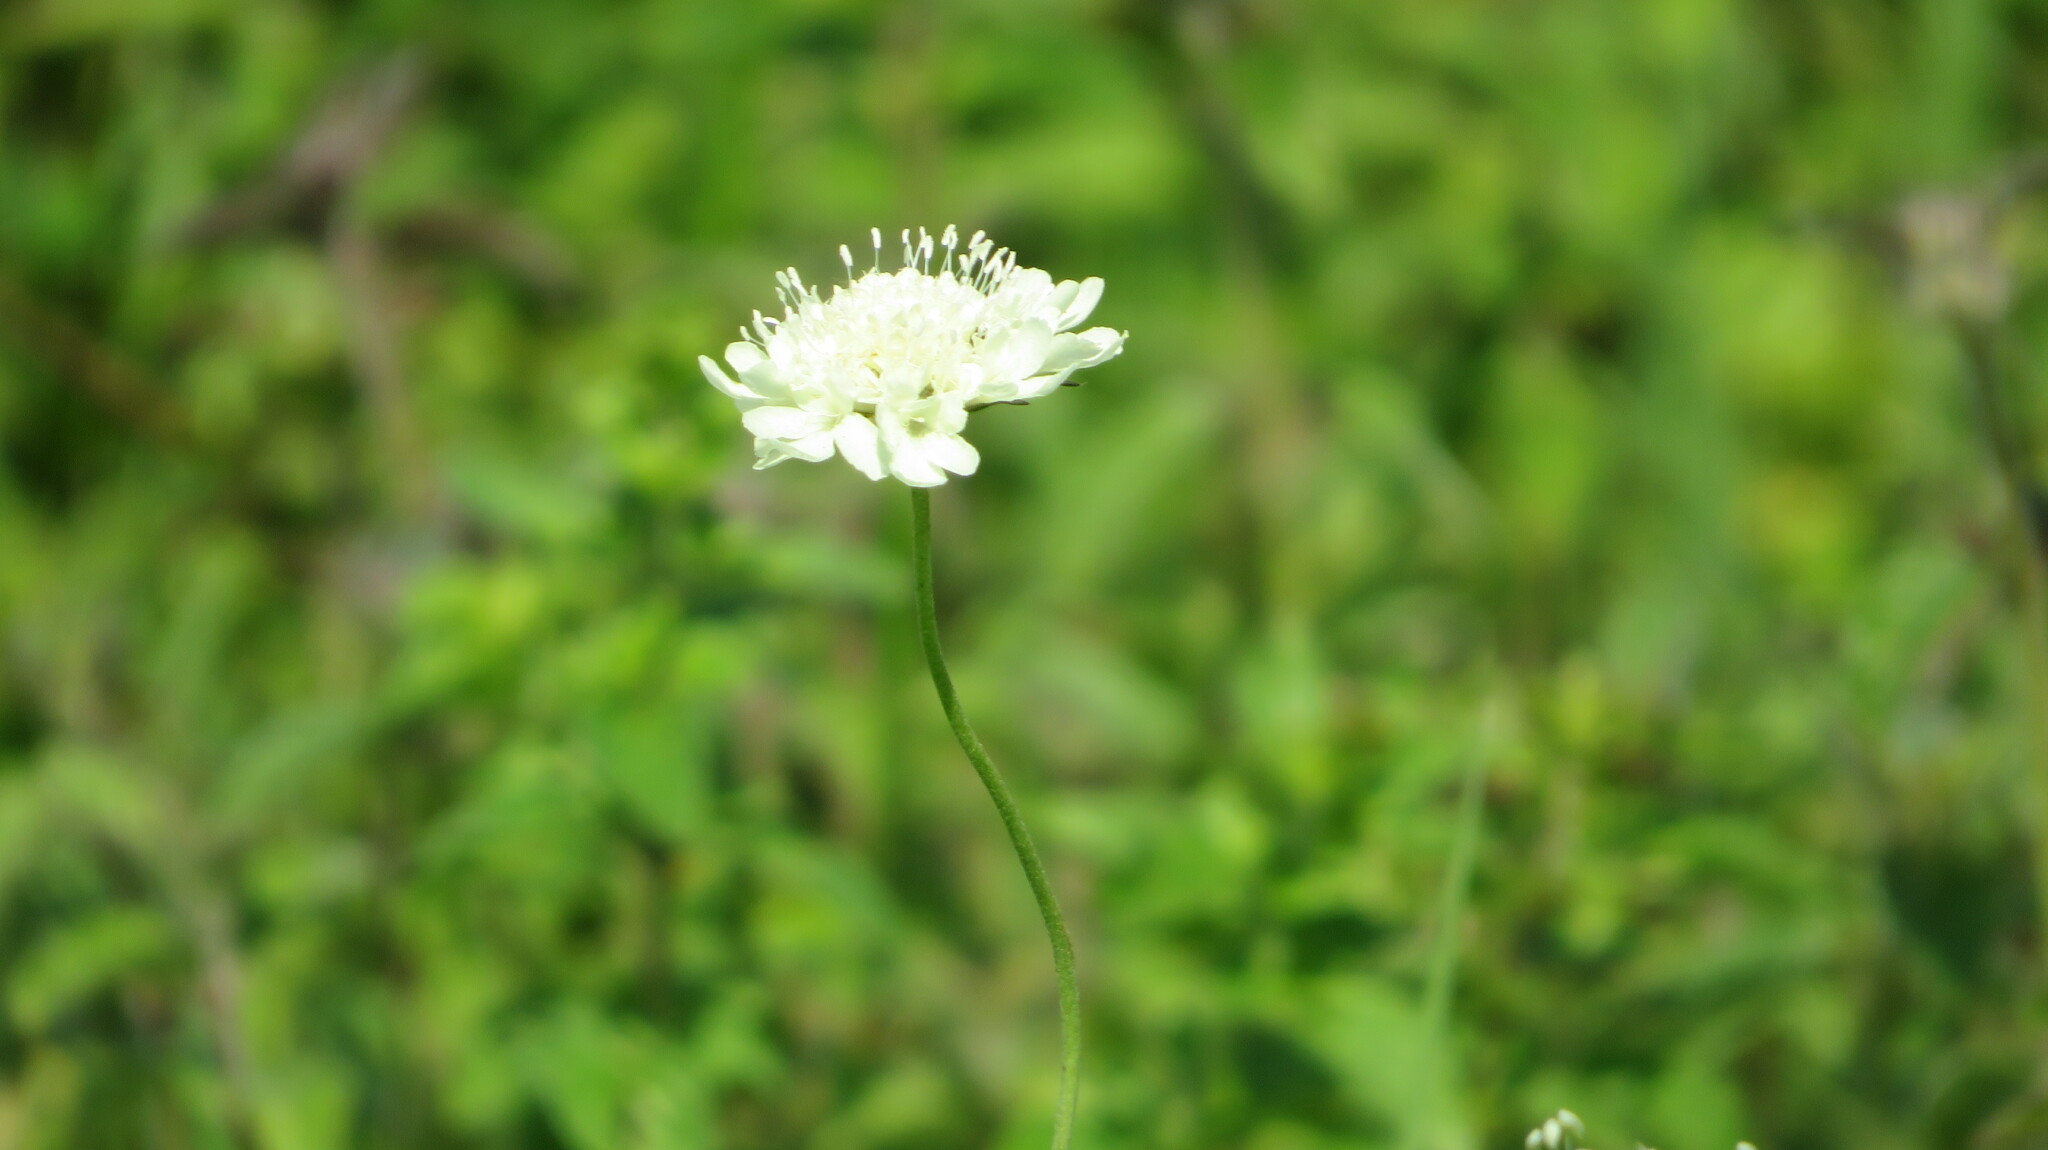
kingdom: Plantae
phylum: Tracheophyta
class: Magnoliopsida
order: Dipsacales
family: Caprifoliaceae
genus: Scabiosa
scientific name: Scabiosa ochroleuca
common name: Cream pincushions
